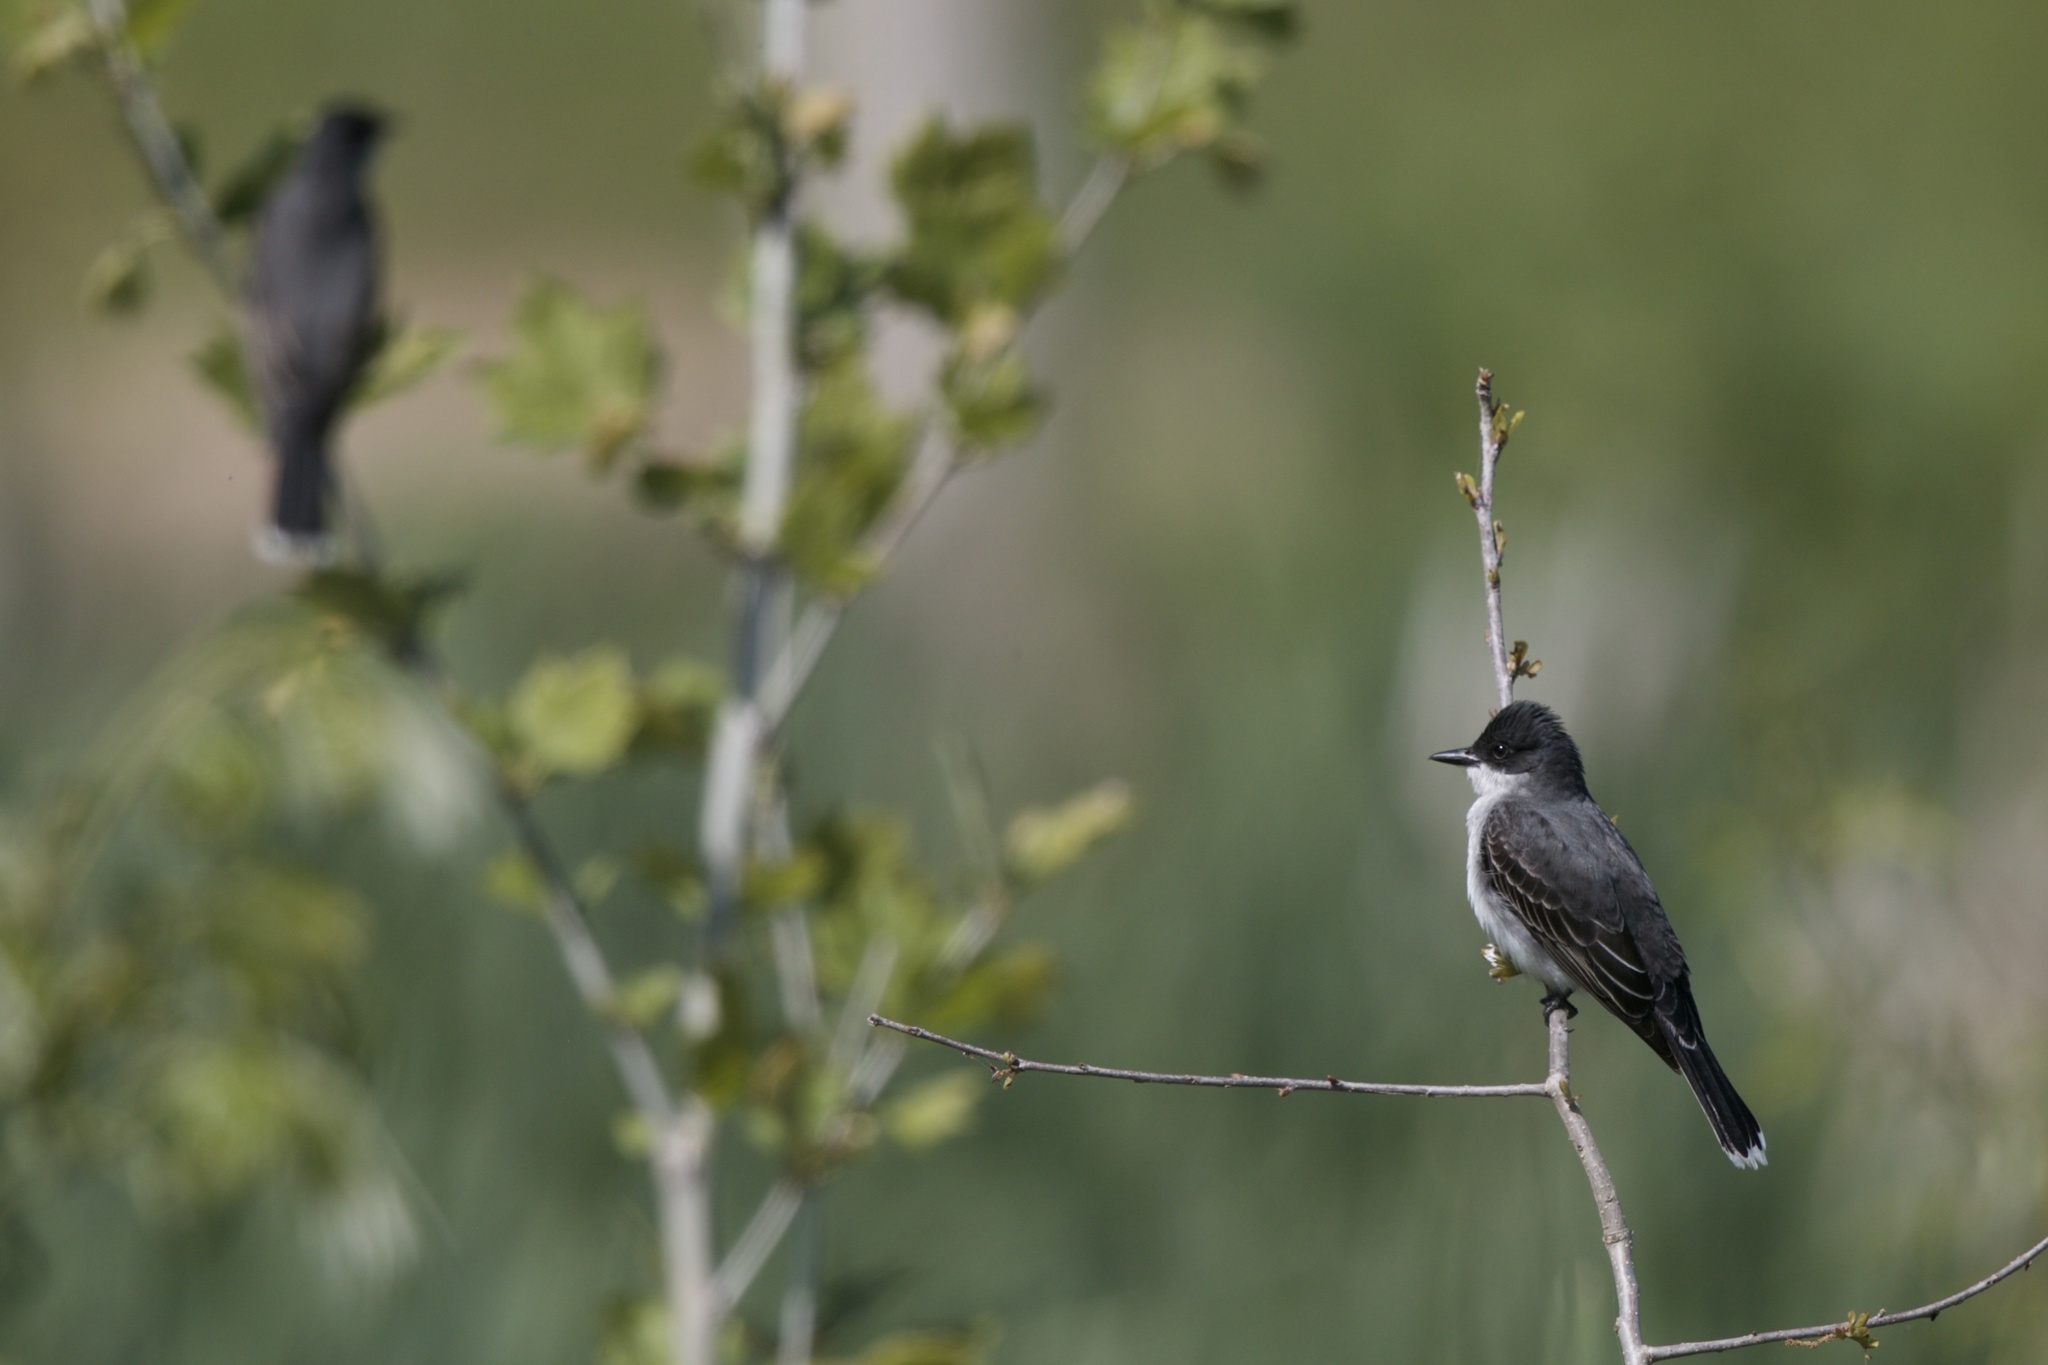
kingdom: Animalia
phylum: Chordata
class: Aves
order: Passeriformes
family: Tyrannidae
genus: Tyrannus
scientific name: Tyrannus tyrannus
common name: Eastern kingbird
